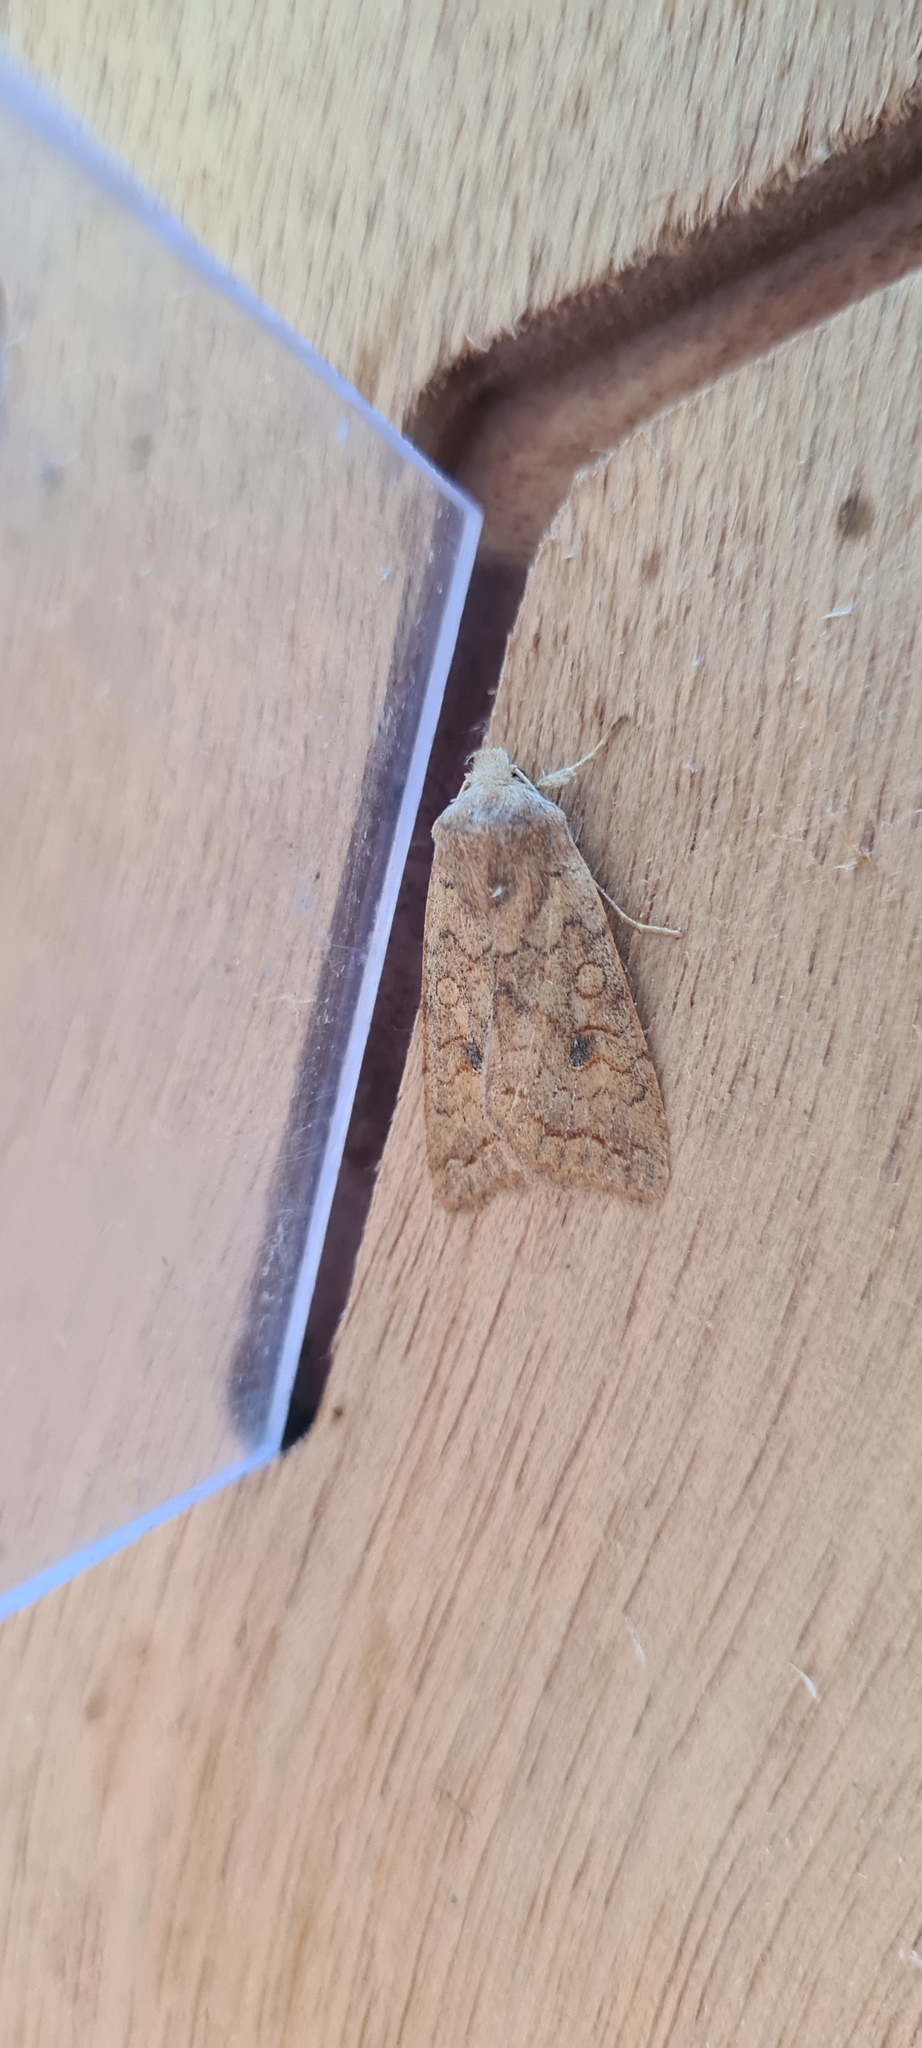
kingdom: Animalia
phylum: Arthropoda
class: Insecta
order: Lepidoptera
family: Noctuidae
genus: Sunira
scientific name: Sunira circellaris
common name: Brick
